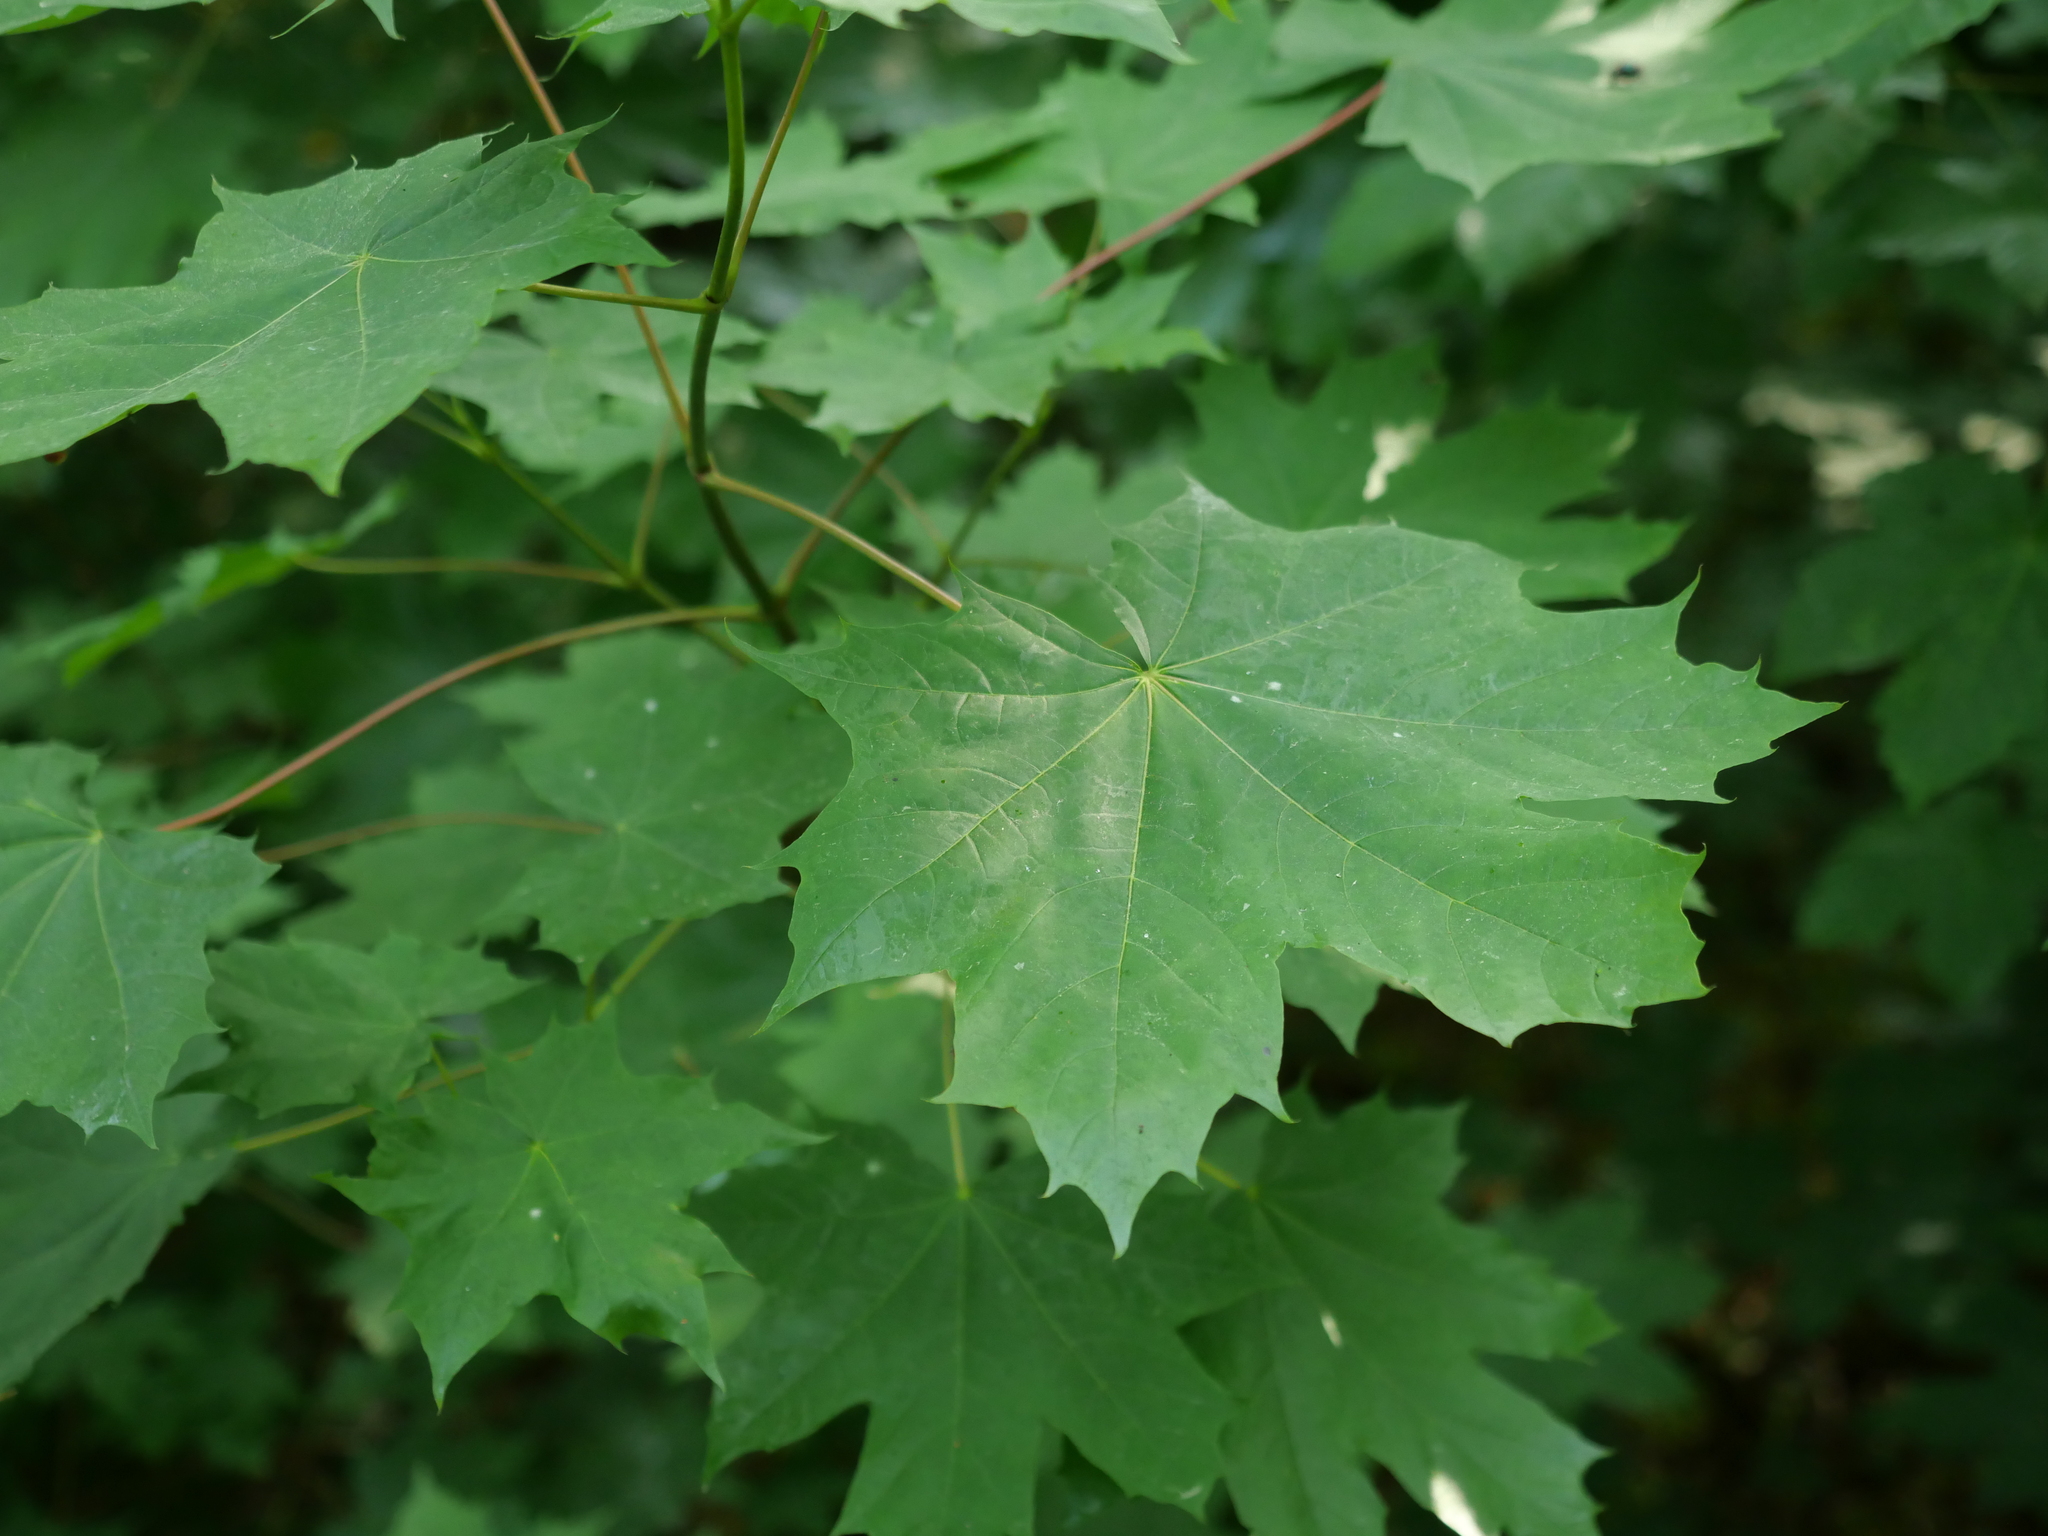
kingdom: Plantae
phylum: Tracheophyta
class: Magnoliopsida
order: Sapindales
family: Sapindaceae
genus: Acer
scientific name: Acer platanoides
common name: Norway maple
